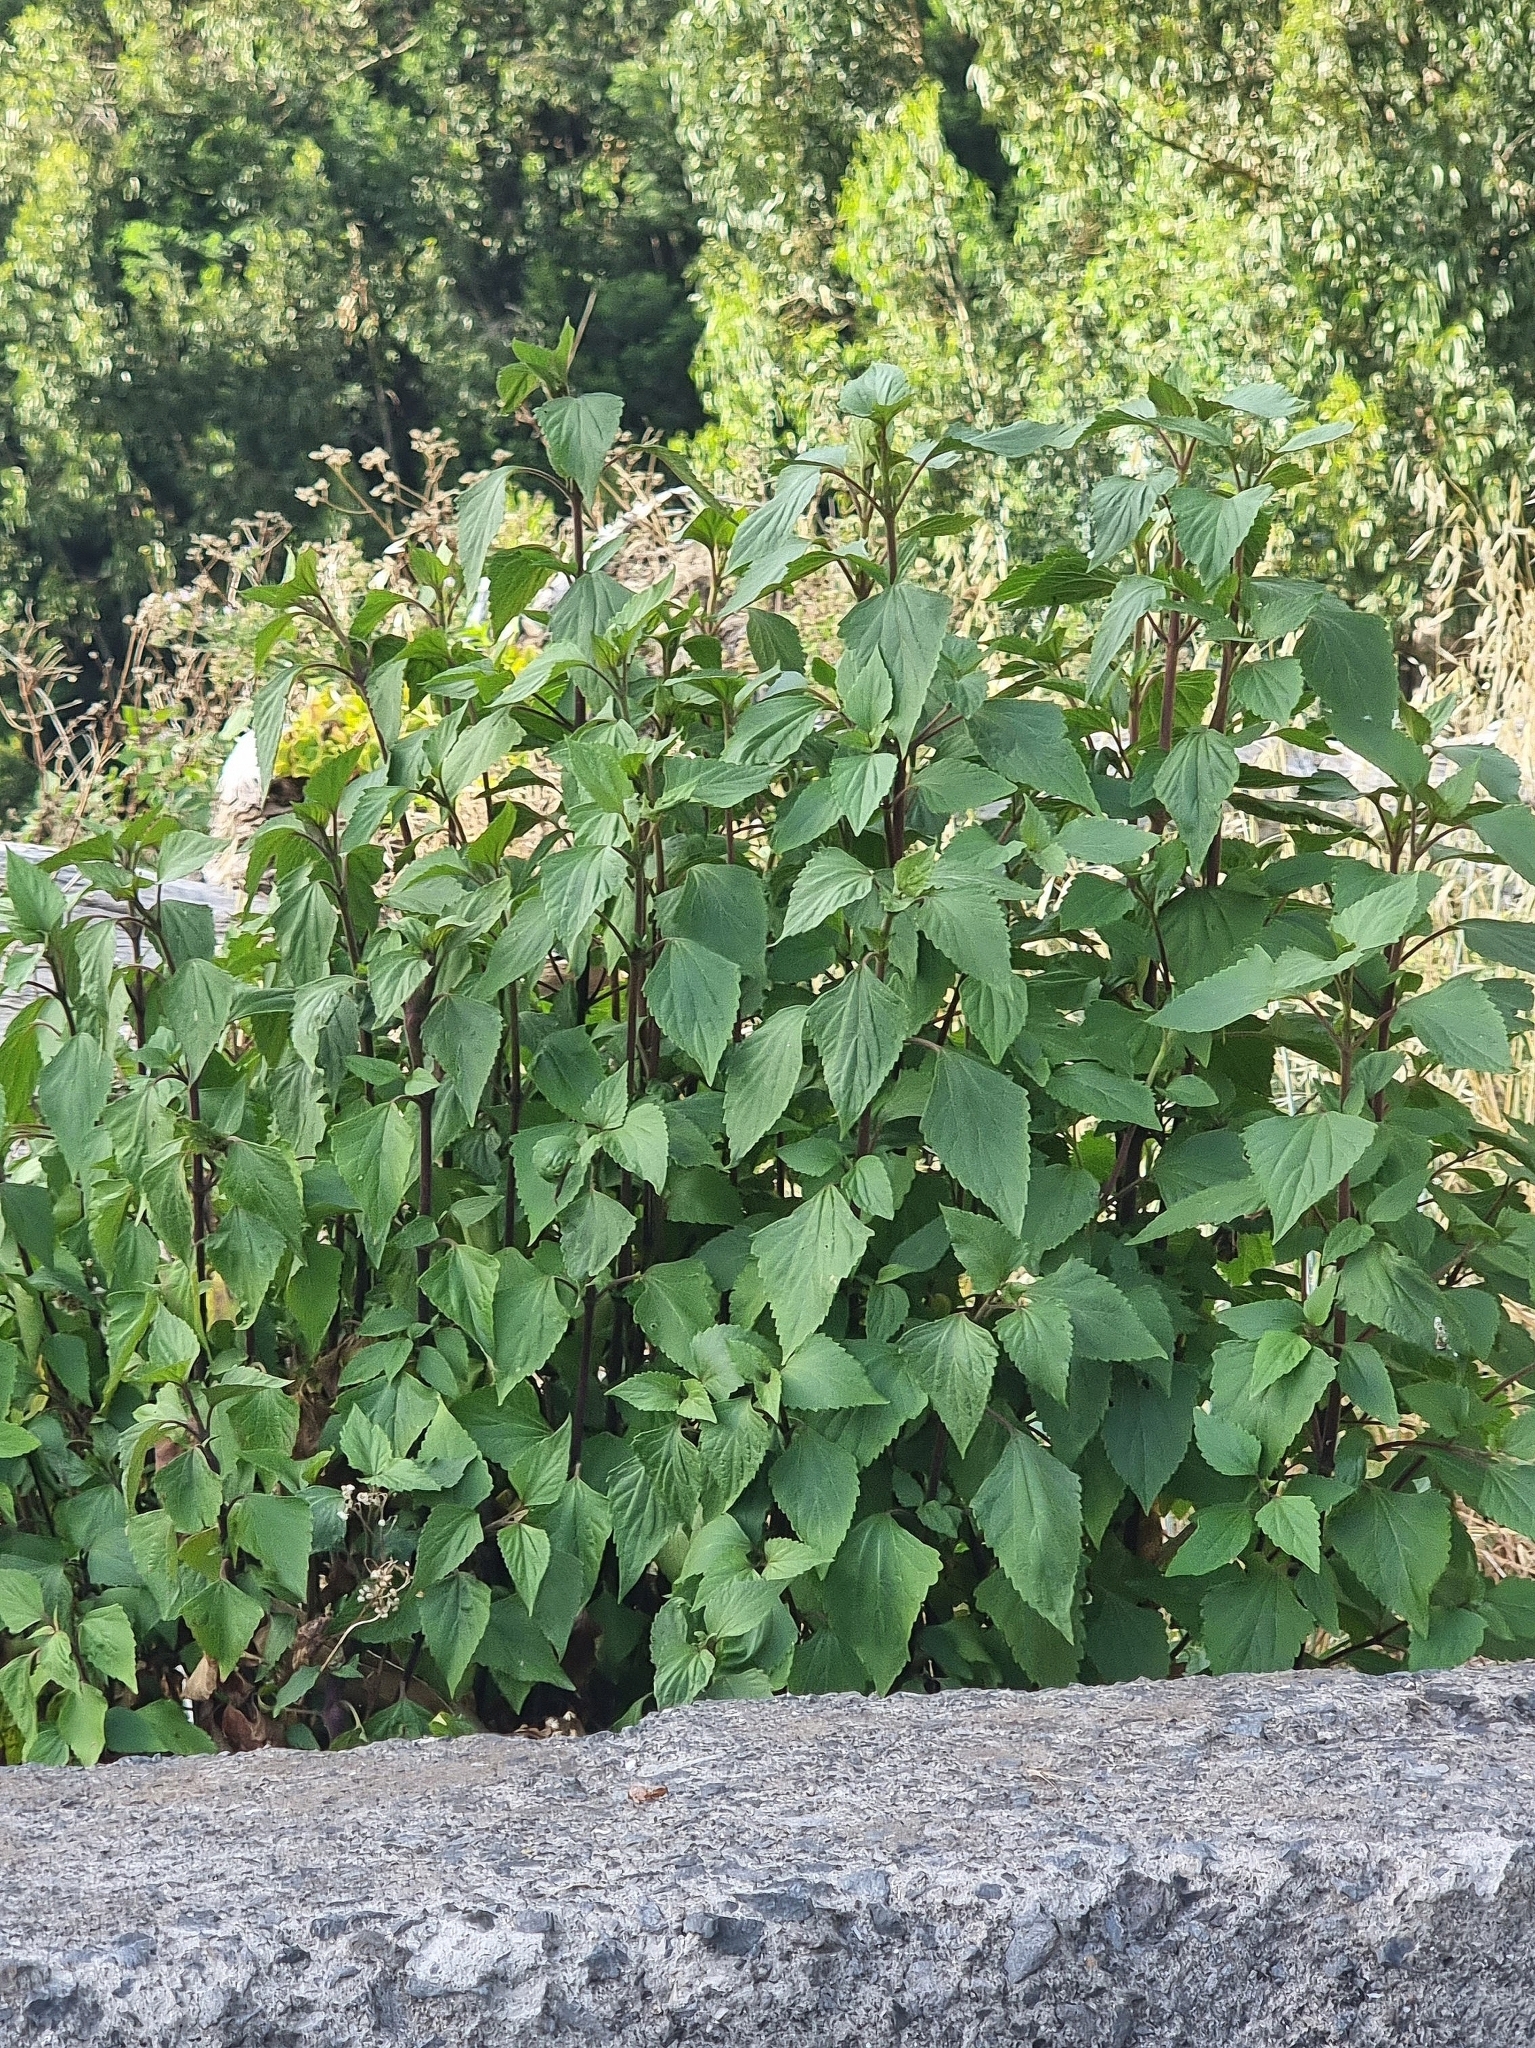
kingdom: Plantae
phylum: Tracheophyta
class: Magnoliopsida
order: Asterales
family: Asteraceae
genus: Ageratina
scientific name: Ageratina adenophora
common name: Sticky snakeroot
